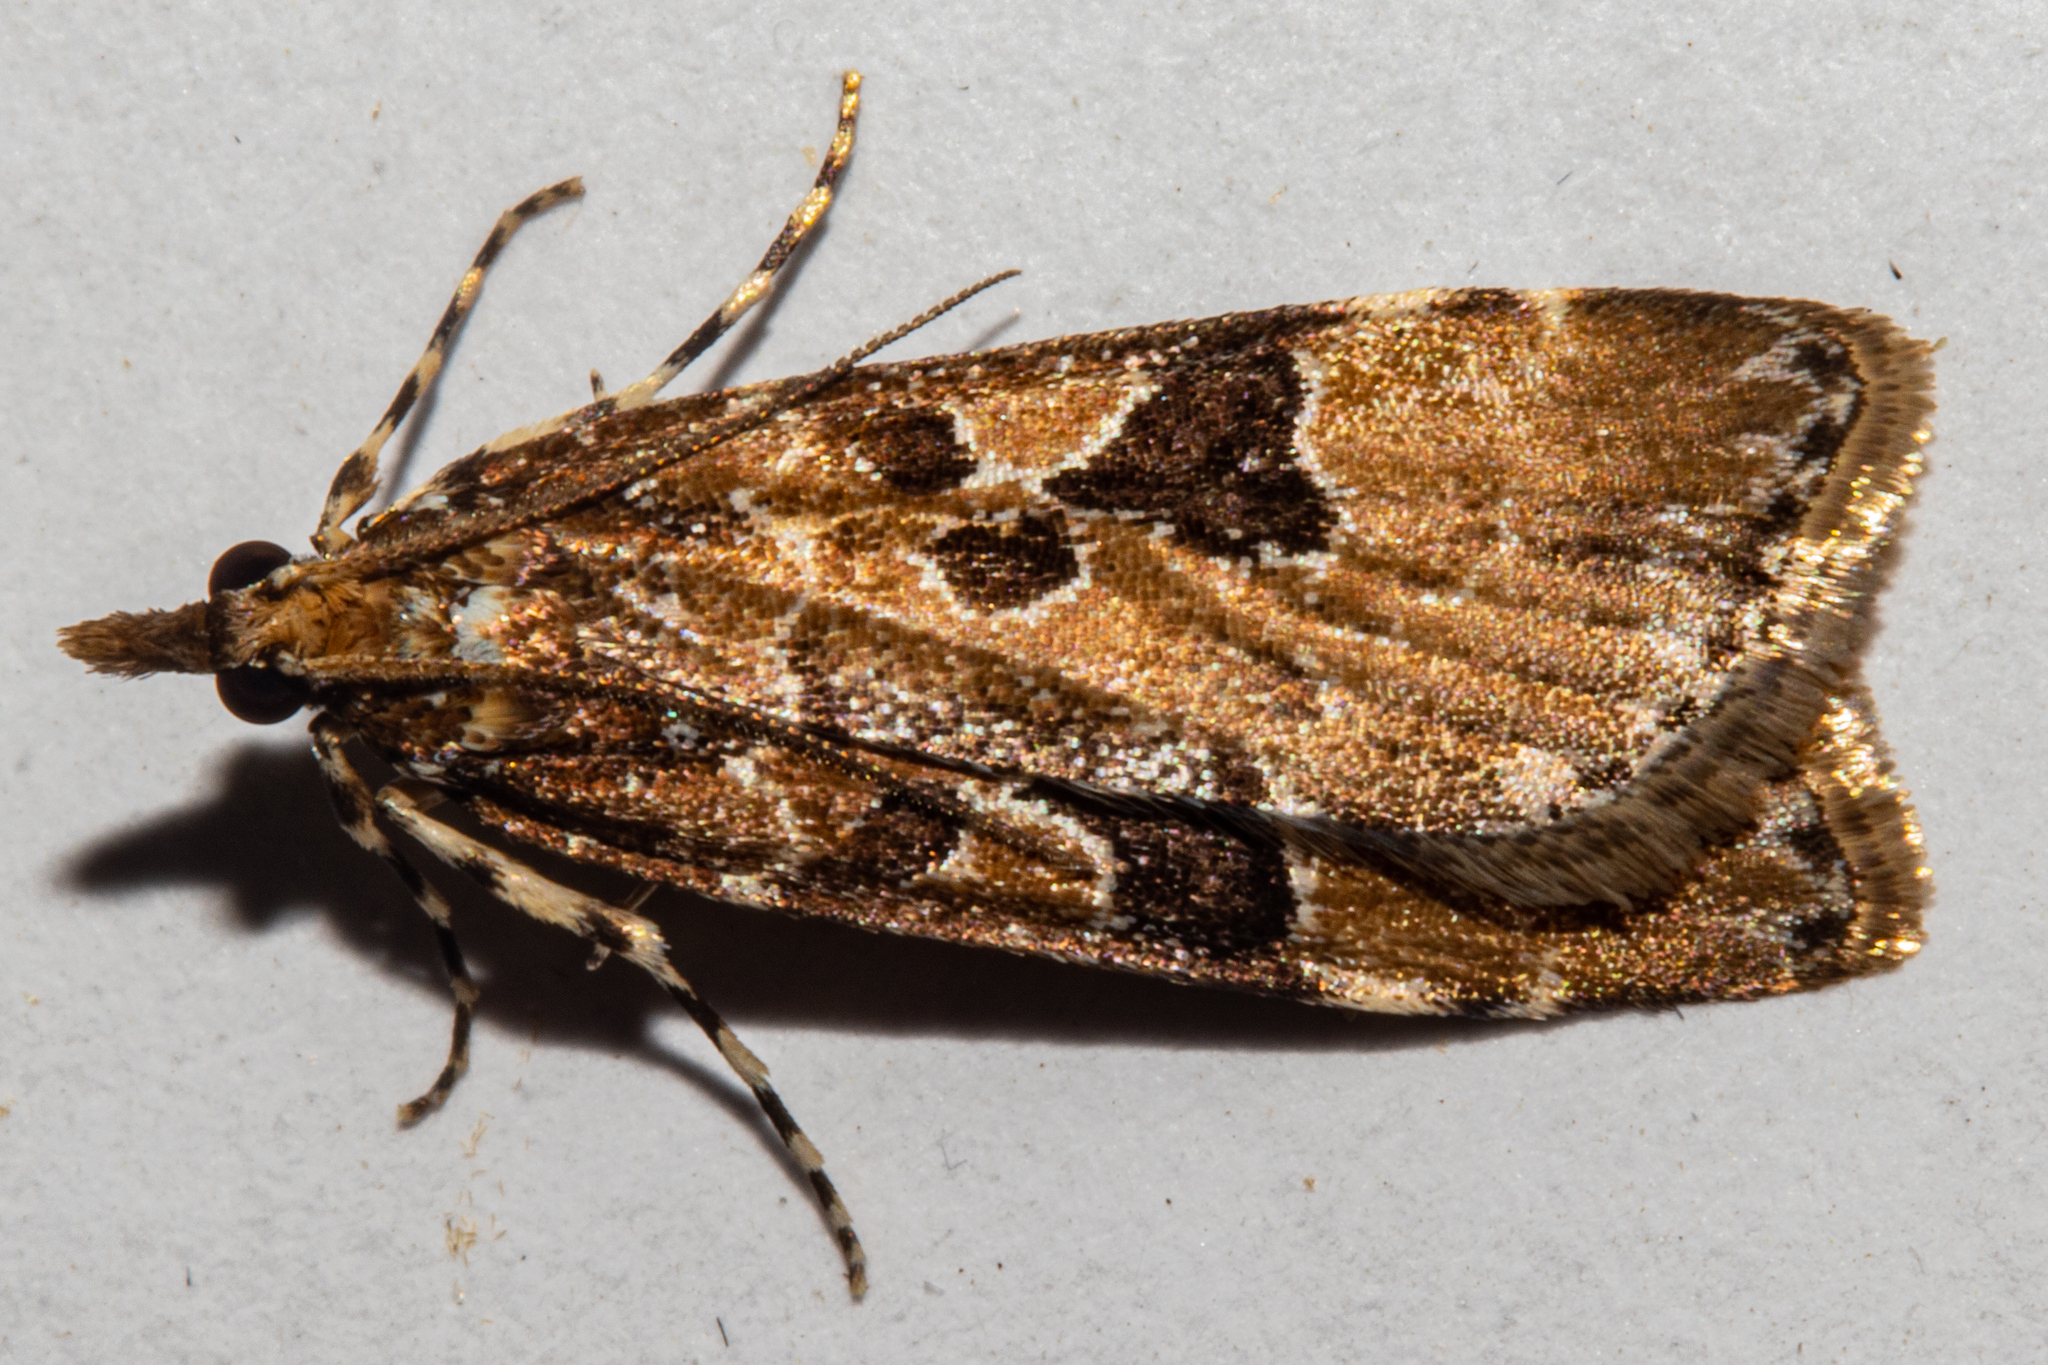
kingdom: Animalia
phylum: Arthropoda
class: Insecta
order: Lepidoptera
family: Crambidae
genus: Scoparia
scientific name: Scoparia ustimacula
